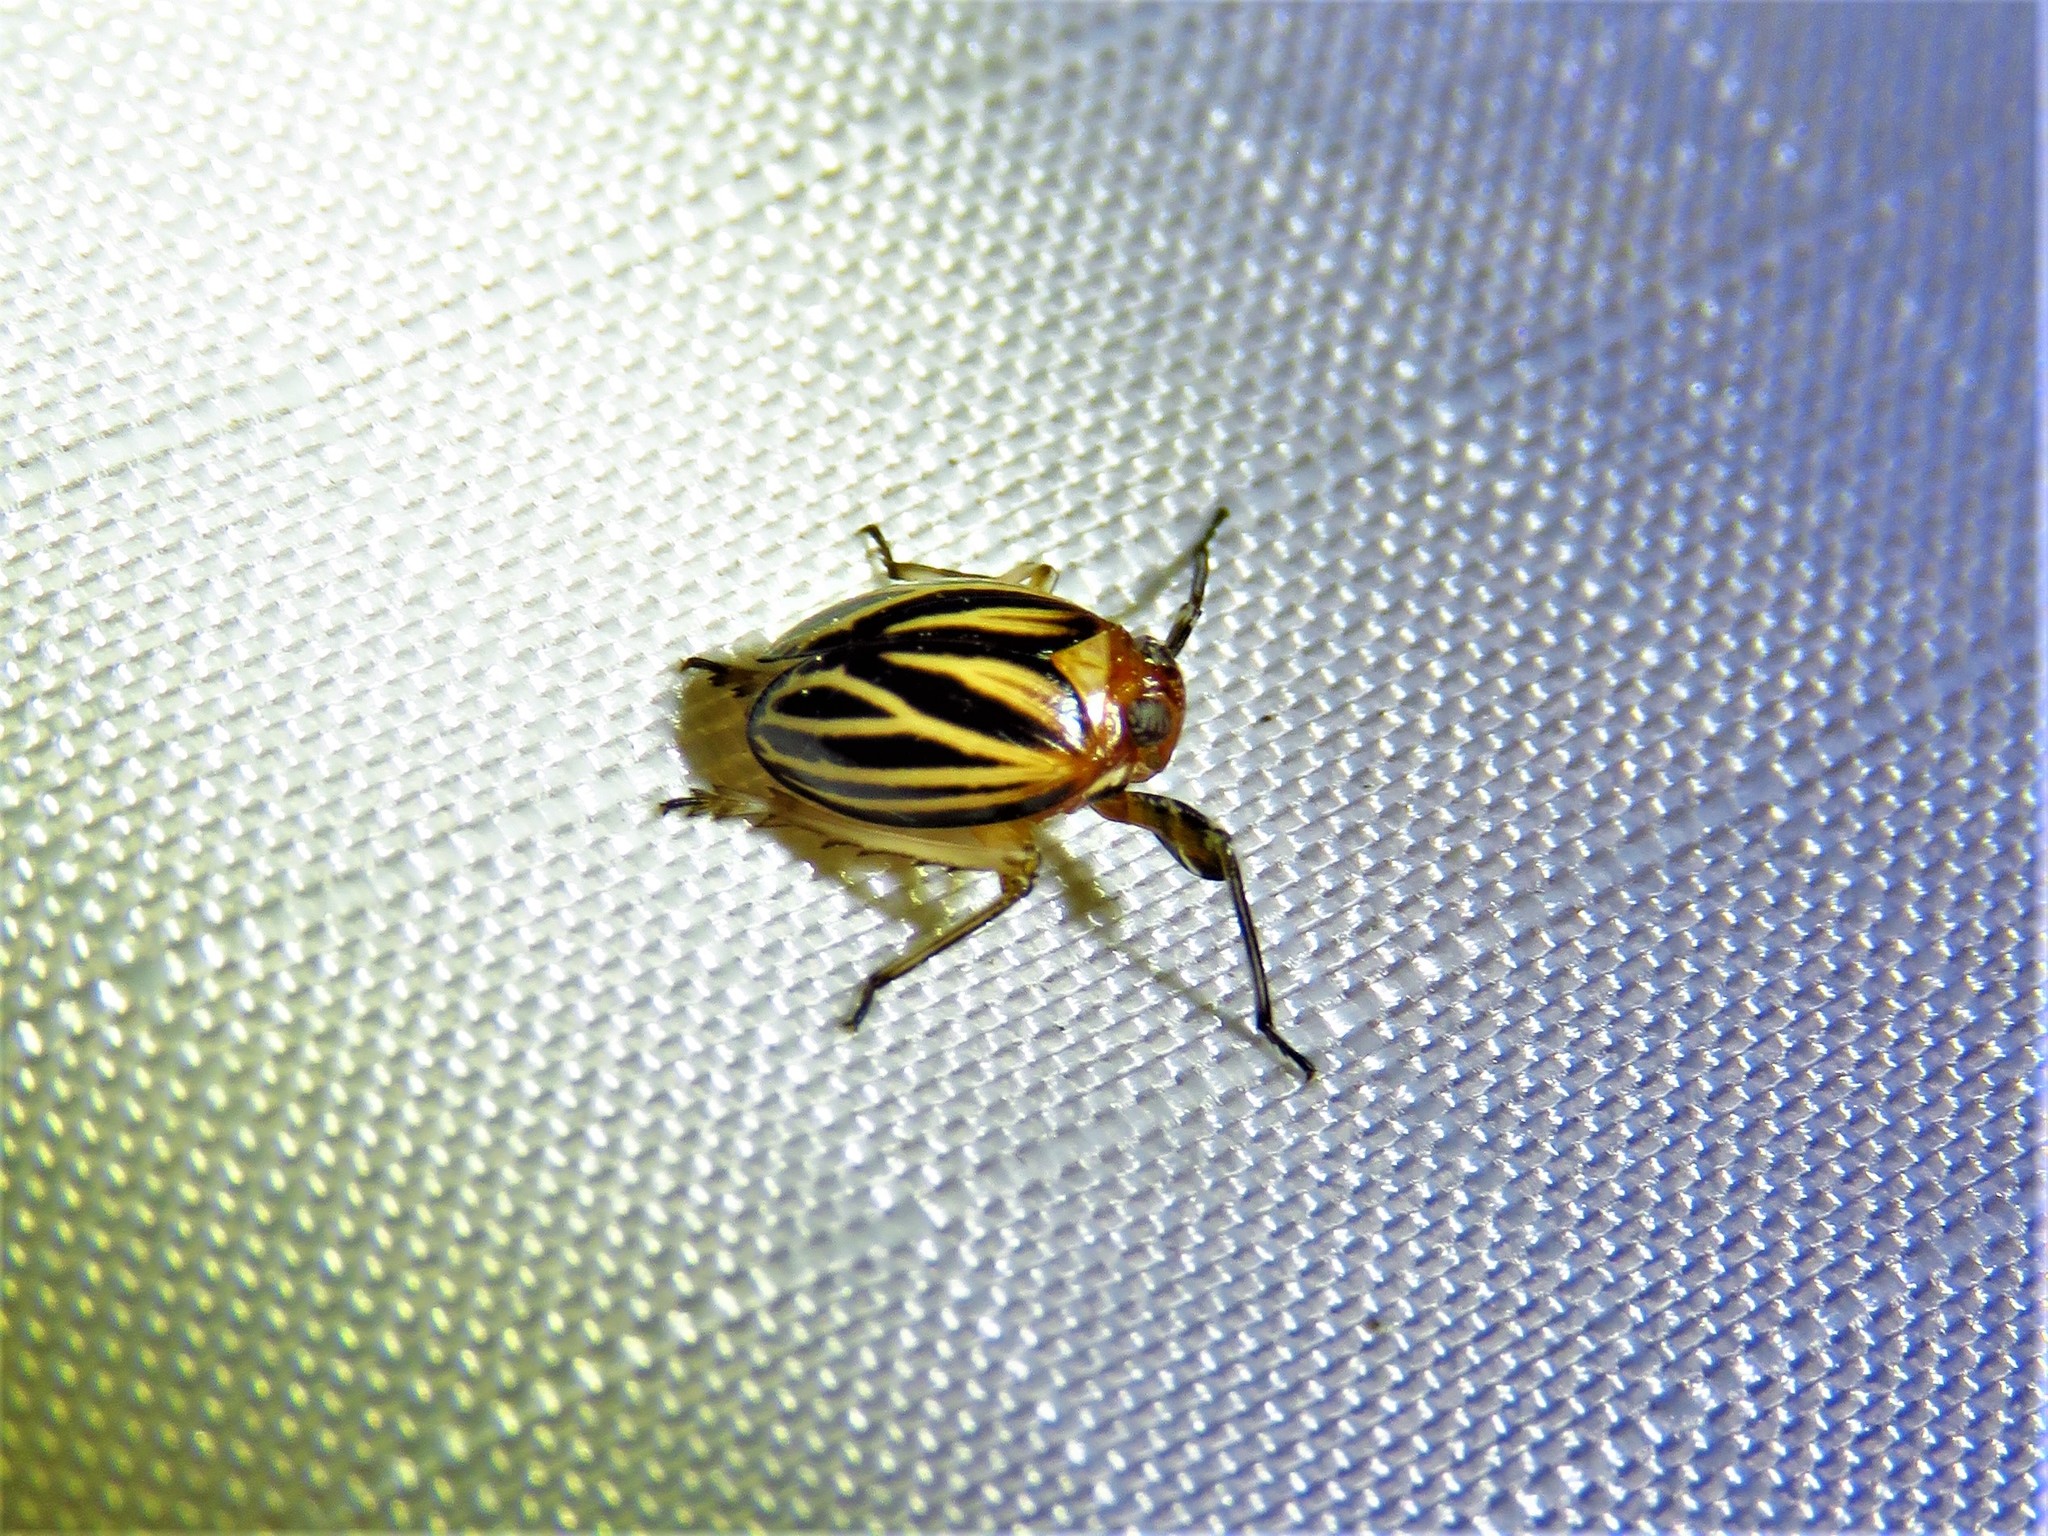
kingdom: Animalia
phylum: Arthropoda
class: Insecta
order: Hemiptera
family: Achilidae
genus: Isodaemon
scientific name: Isodaemon orontes
